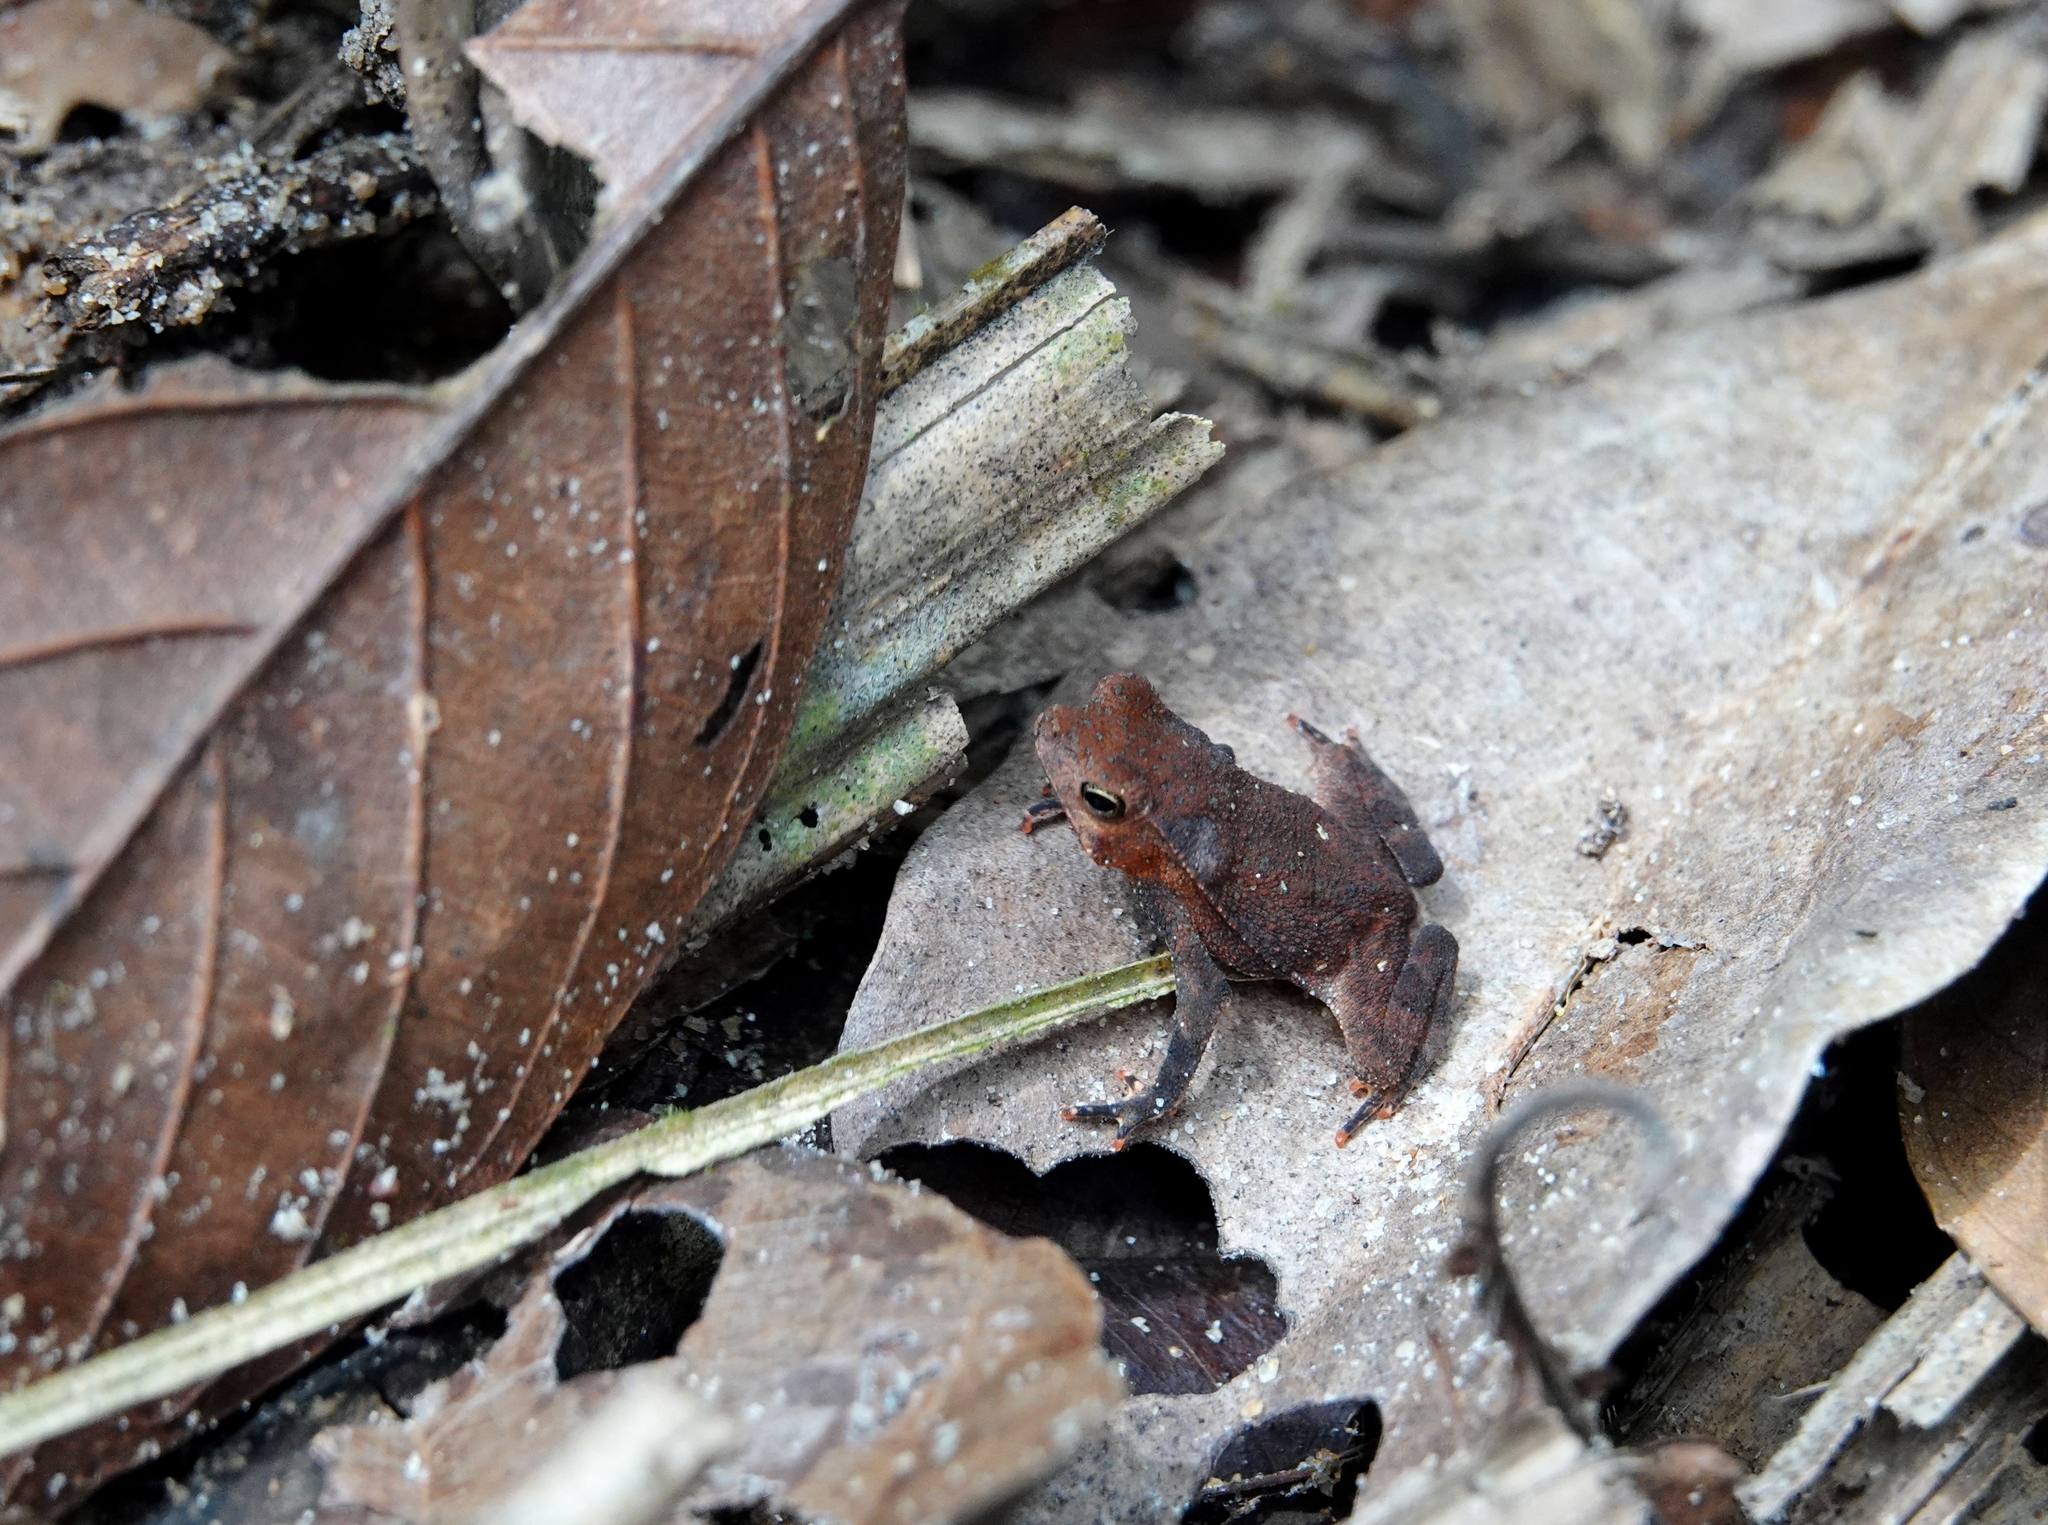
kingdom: Animalia
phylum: Chordata
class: Amphibia
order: Anura
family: Bufonidae
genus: Rhinella
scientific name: Rhinella margaritifera
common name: Mitred toad
